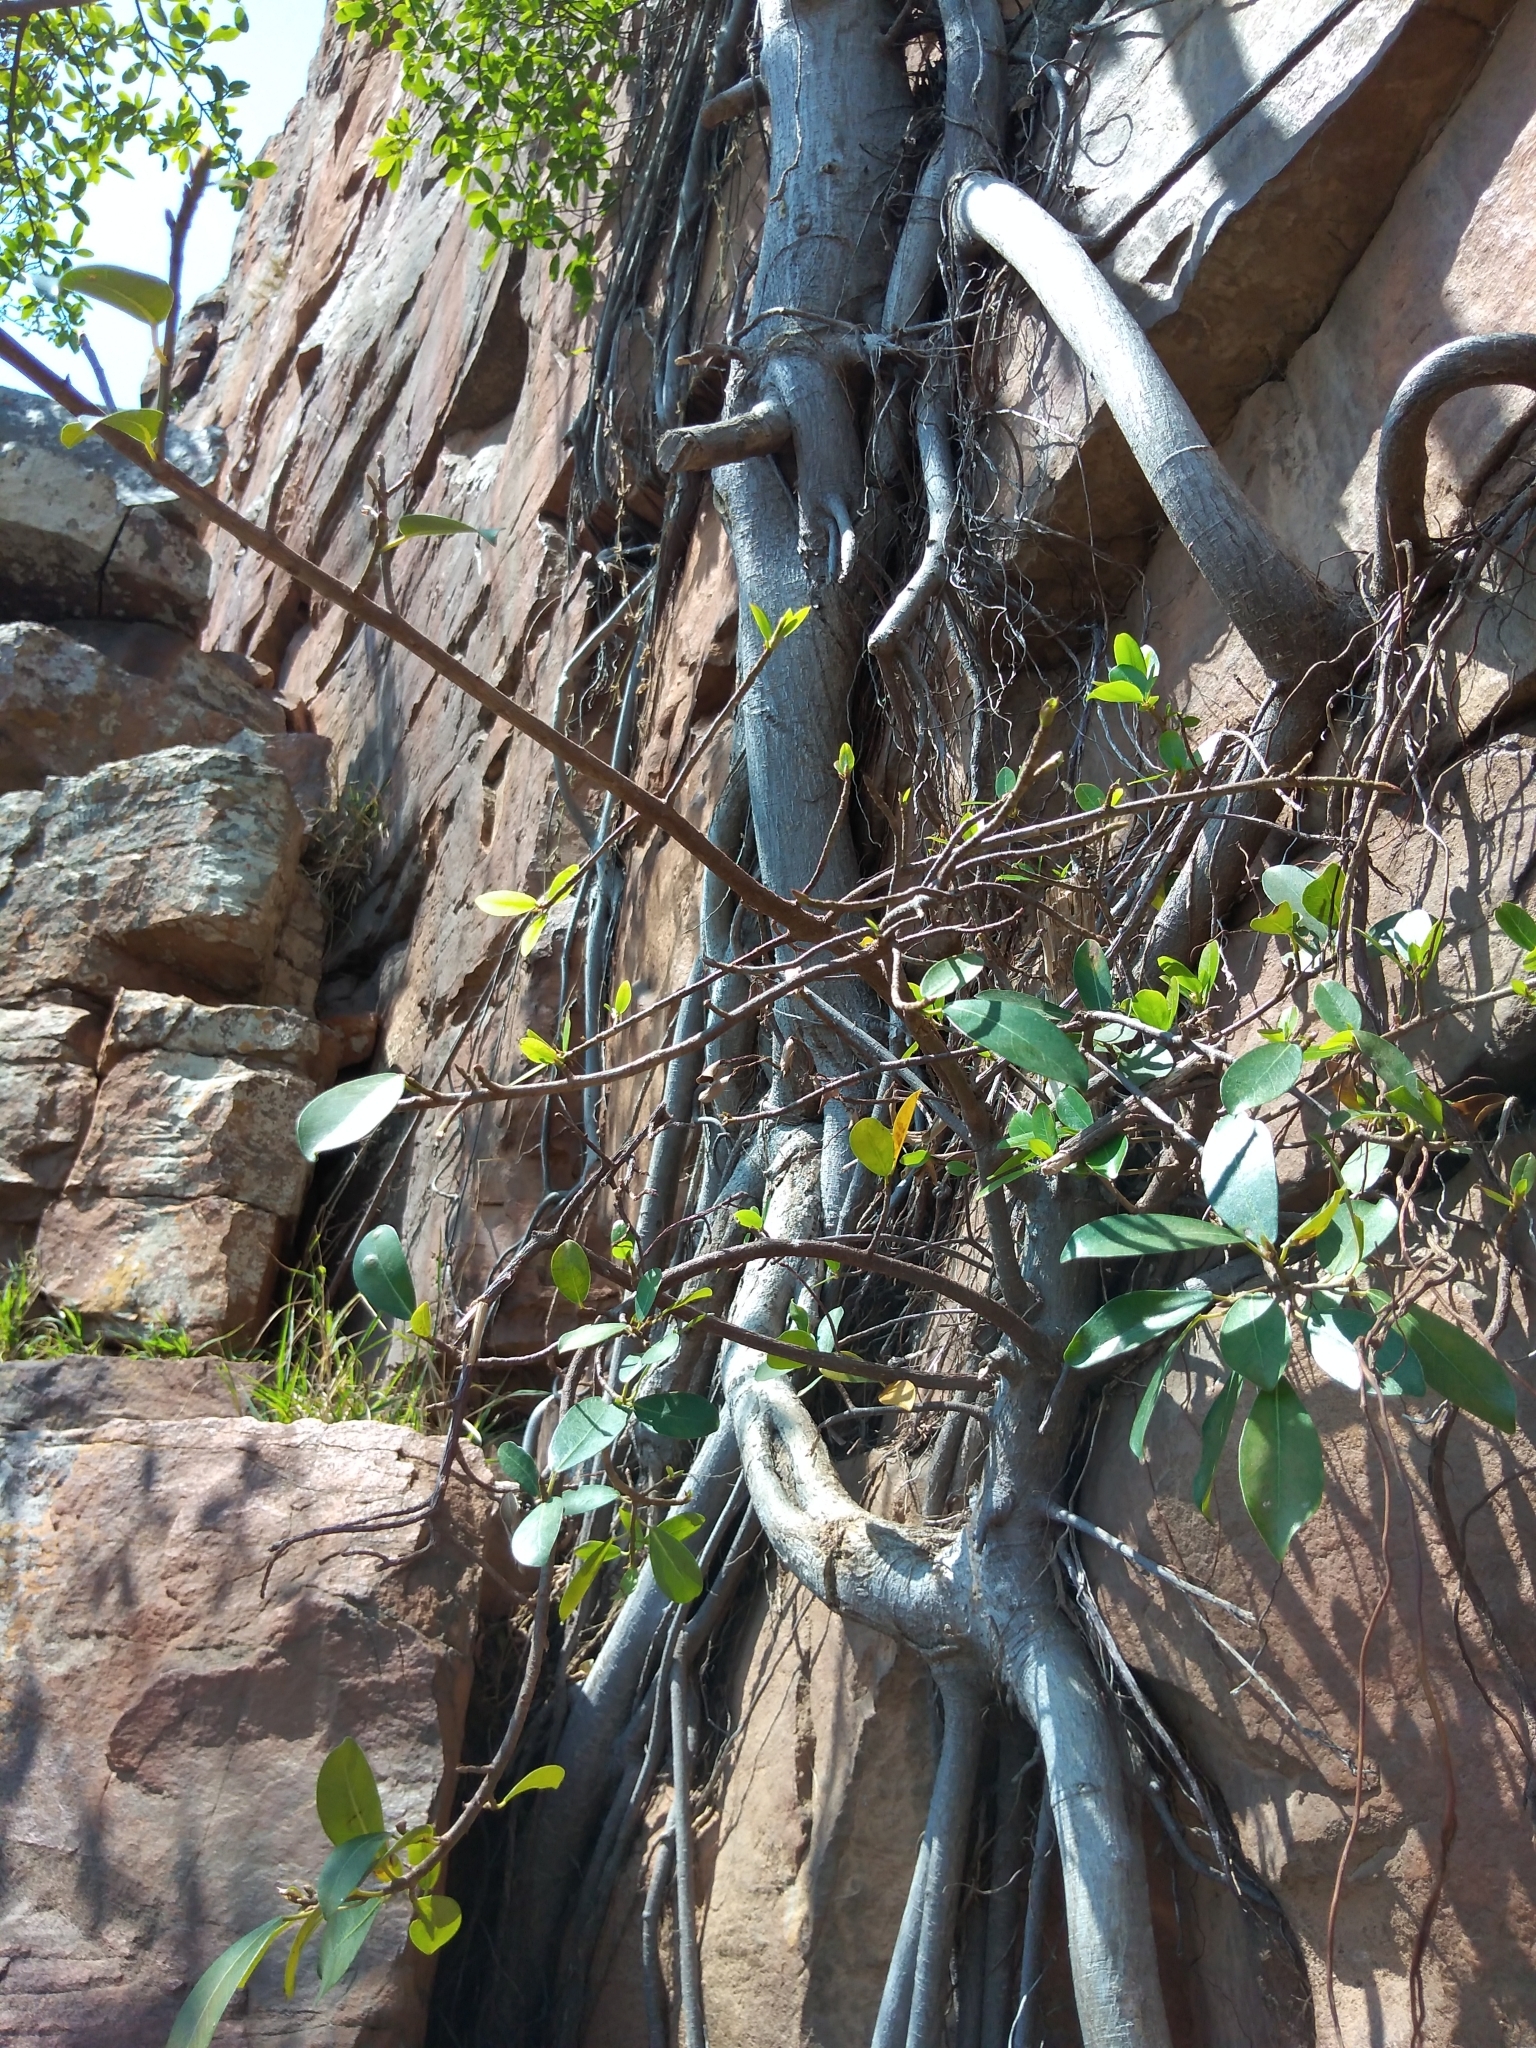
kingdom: Plantae
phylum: Tracheophyta
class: Magnoliopsida
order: Rosales
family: Moraceae
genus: Ficus
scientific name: Ficus thonningii
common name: Fig
